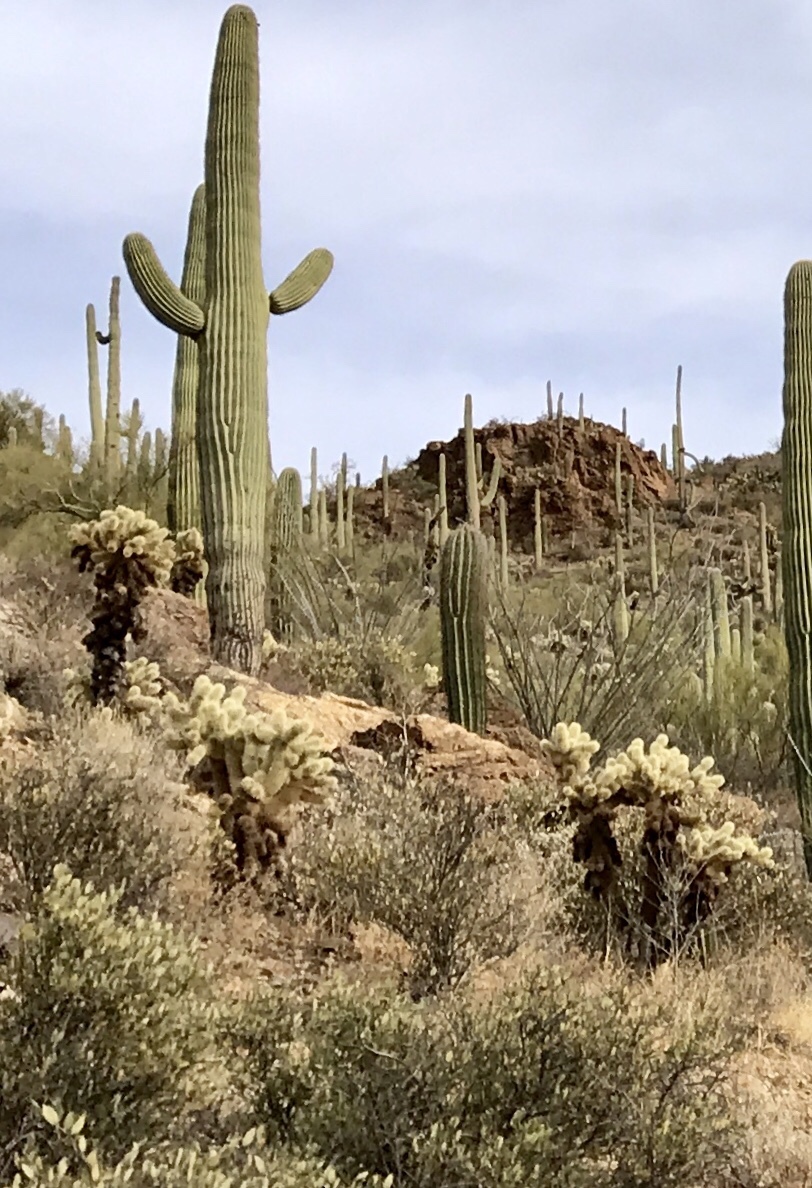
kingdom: Plantae
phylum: Tracheophyta
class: Magnoliopsida
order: Caryophyllales
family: Cactaceae
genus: Cylindropuntia
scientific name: Cylindropuntia fosbergii
